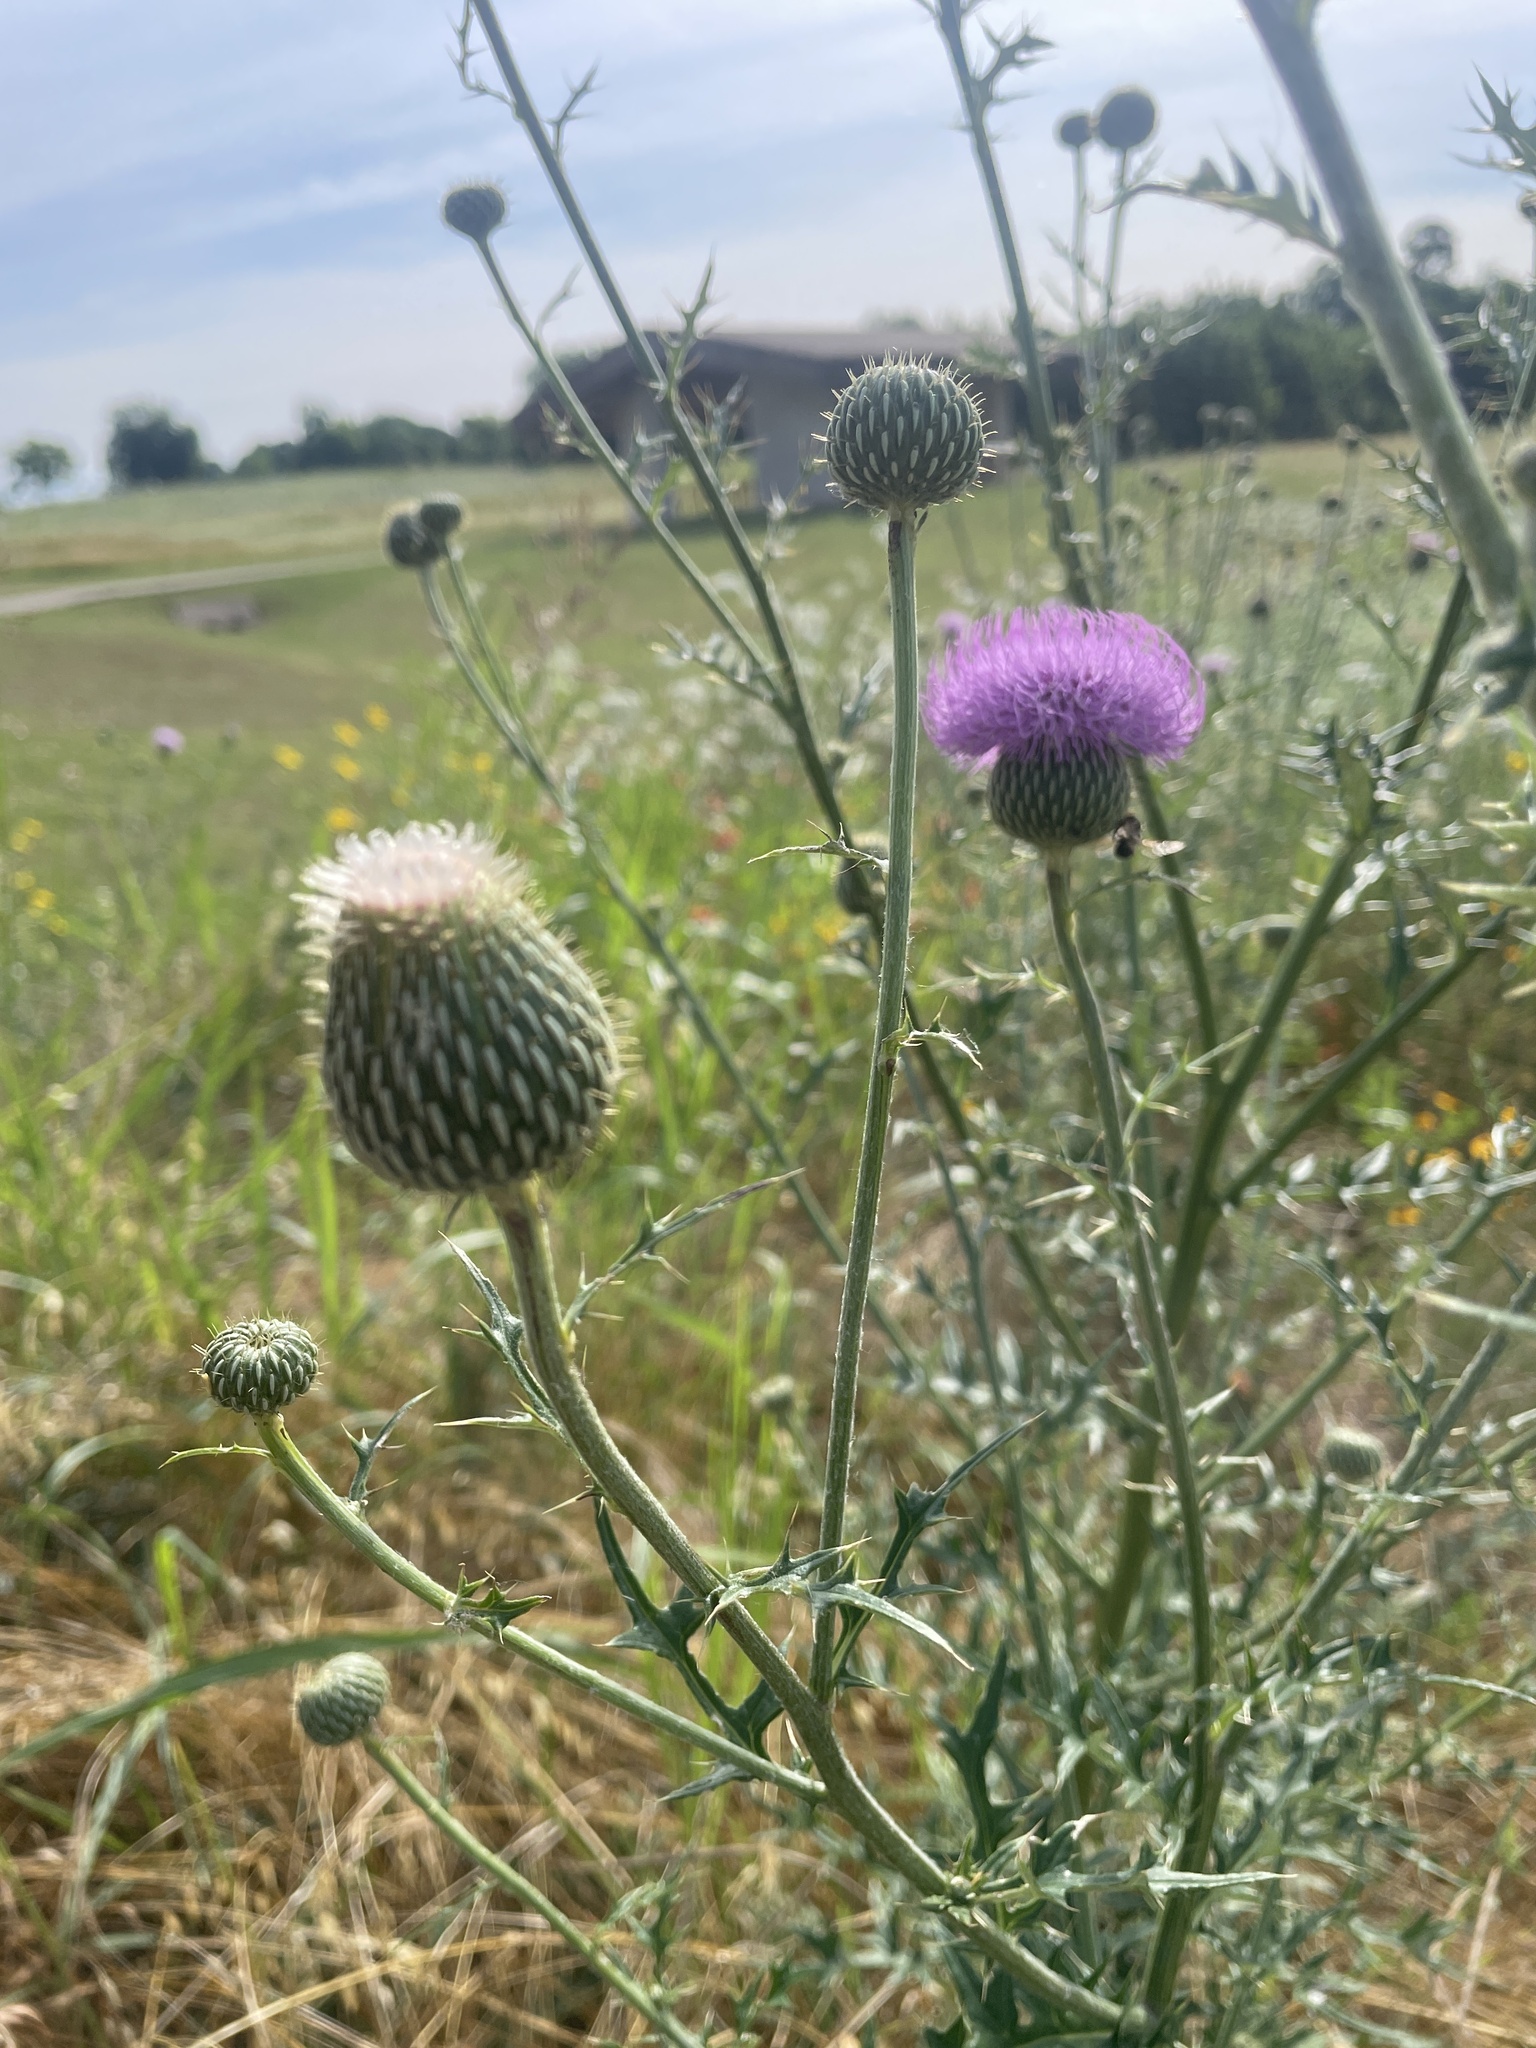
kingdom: Plantae
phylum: Tracheophyta
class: Magnoliopsida
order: Asterales
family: Asteraceae
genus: Cirsium
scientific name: Cirsium texanum
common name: Texas purple thistle
